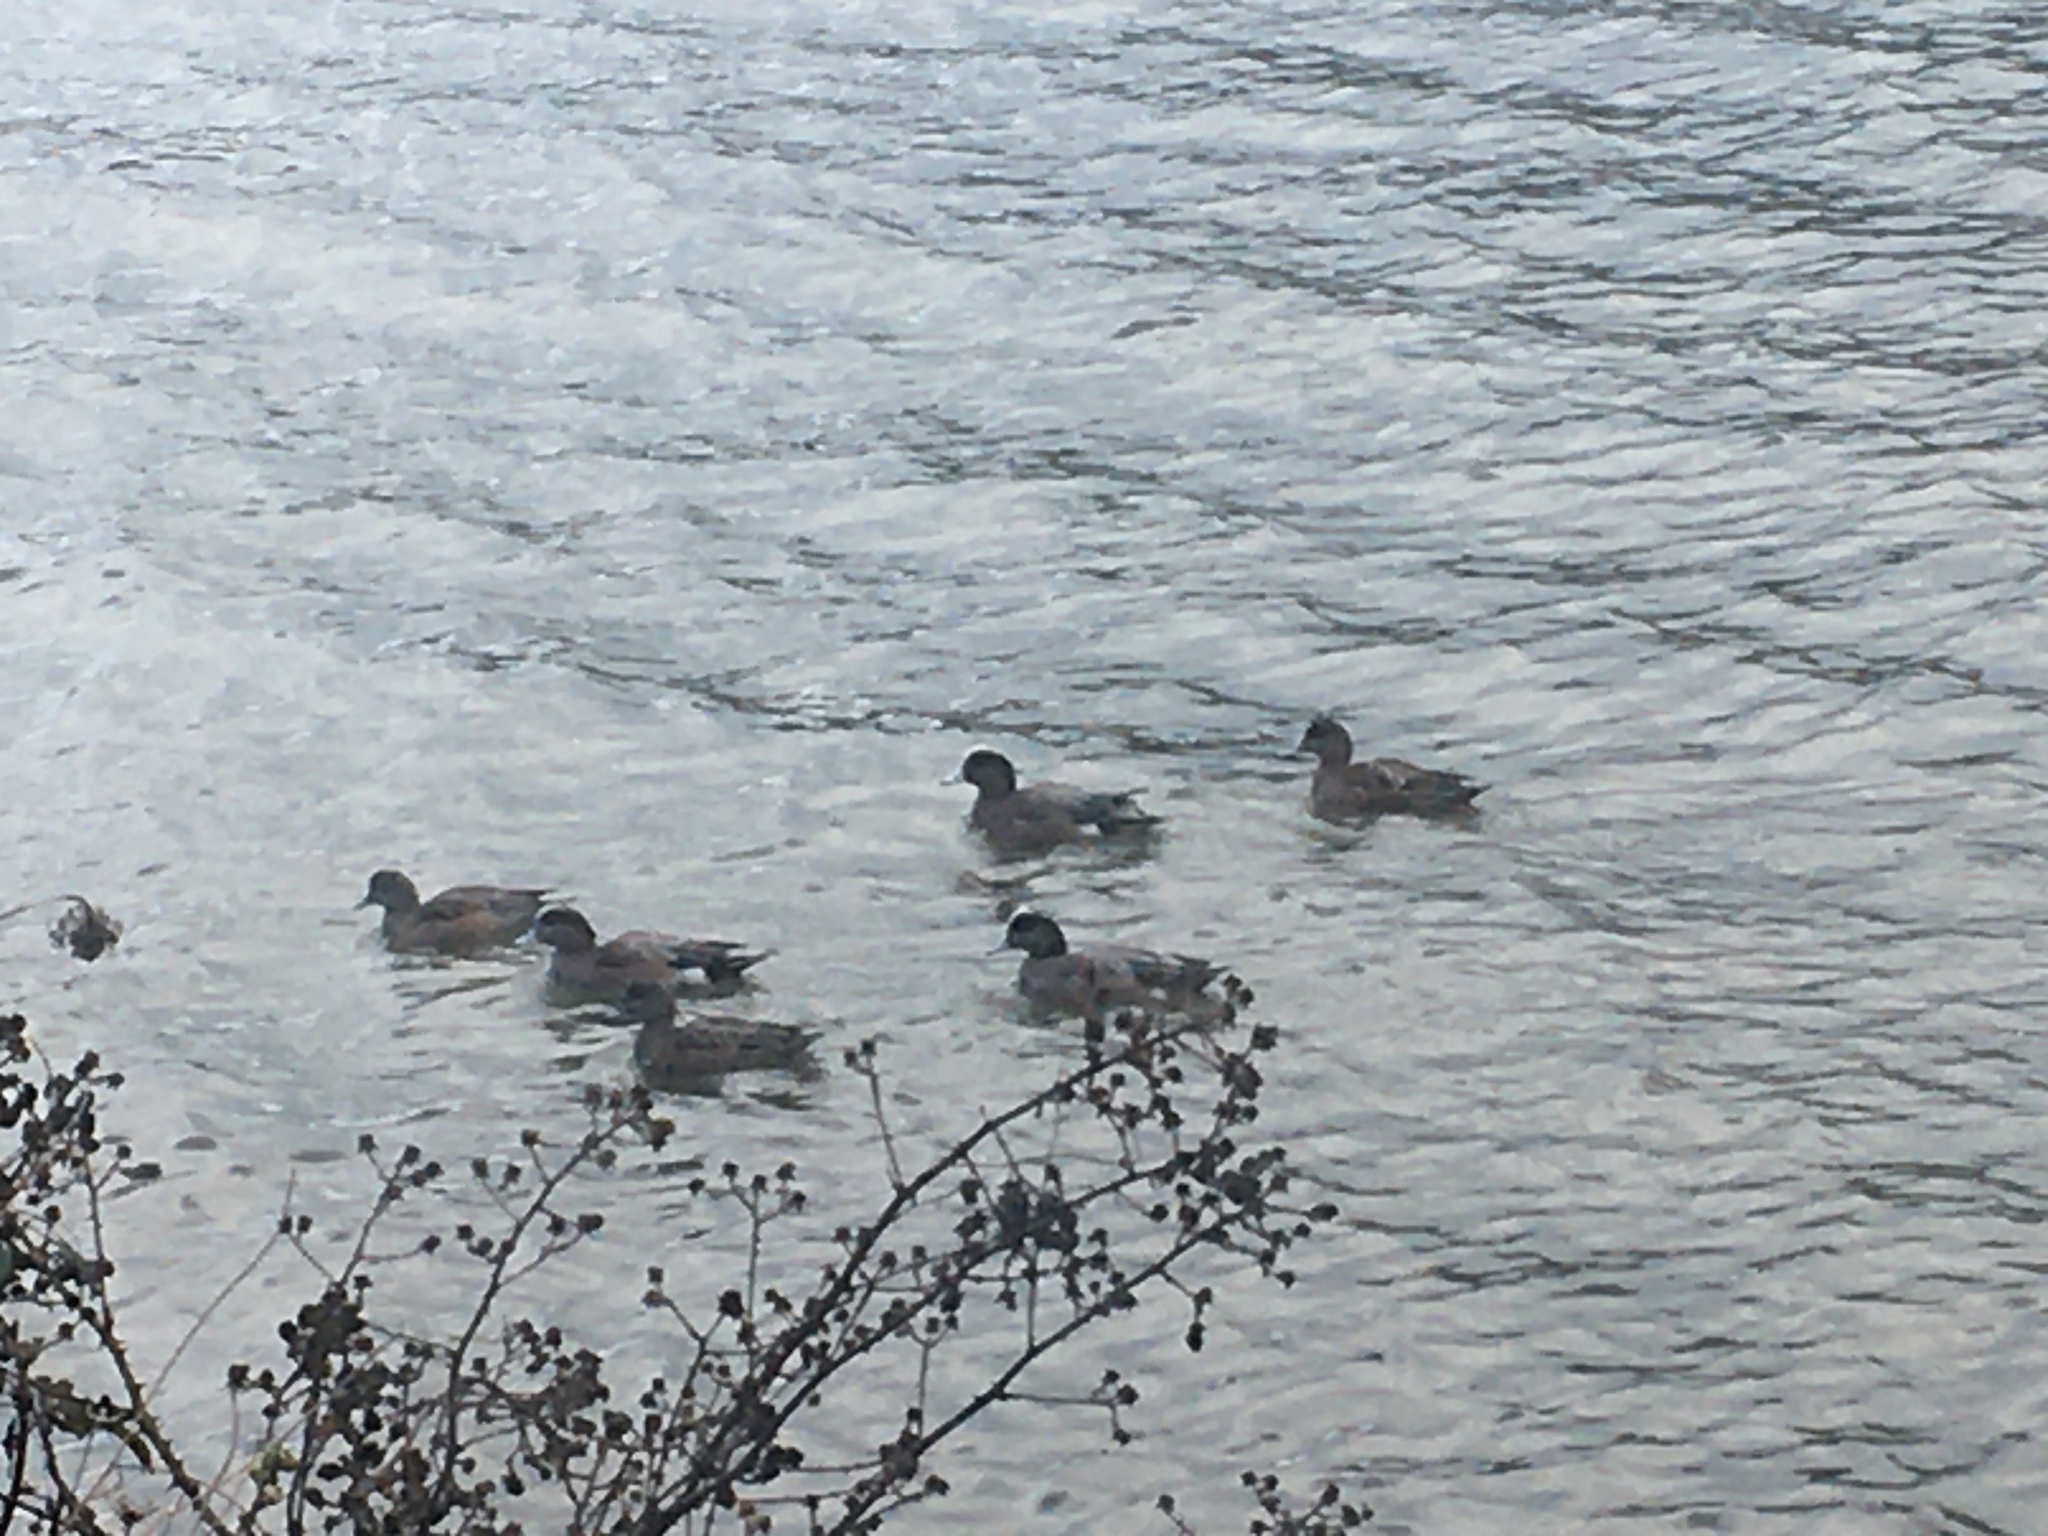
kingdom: Animalia
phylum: Chordata
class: Aves
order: Anseriformes
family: Anatidae
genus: Mareca
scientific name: Mareca americana
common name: American wigeon
